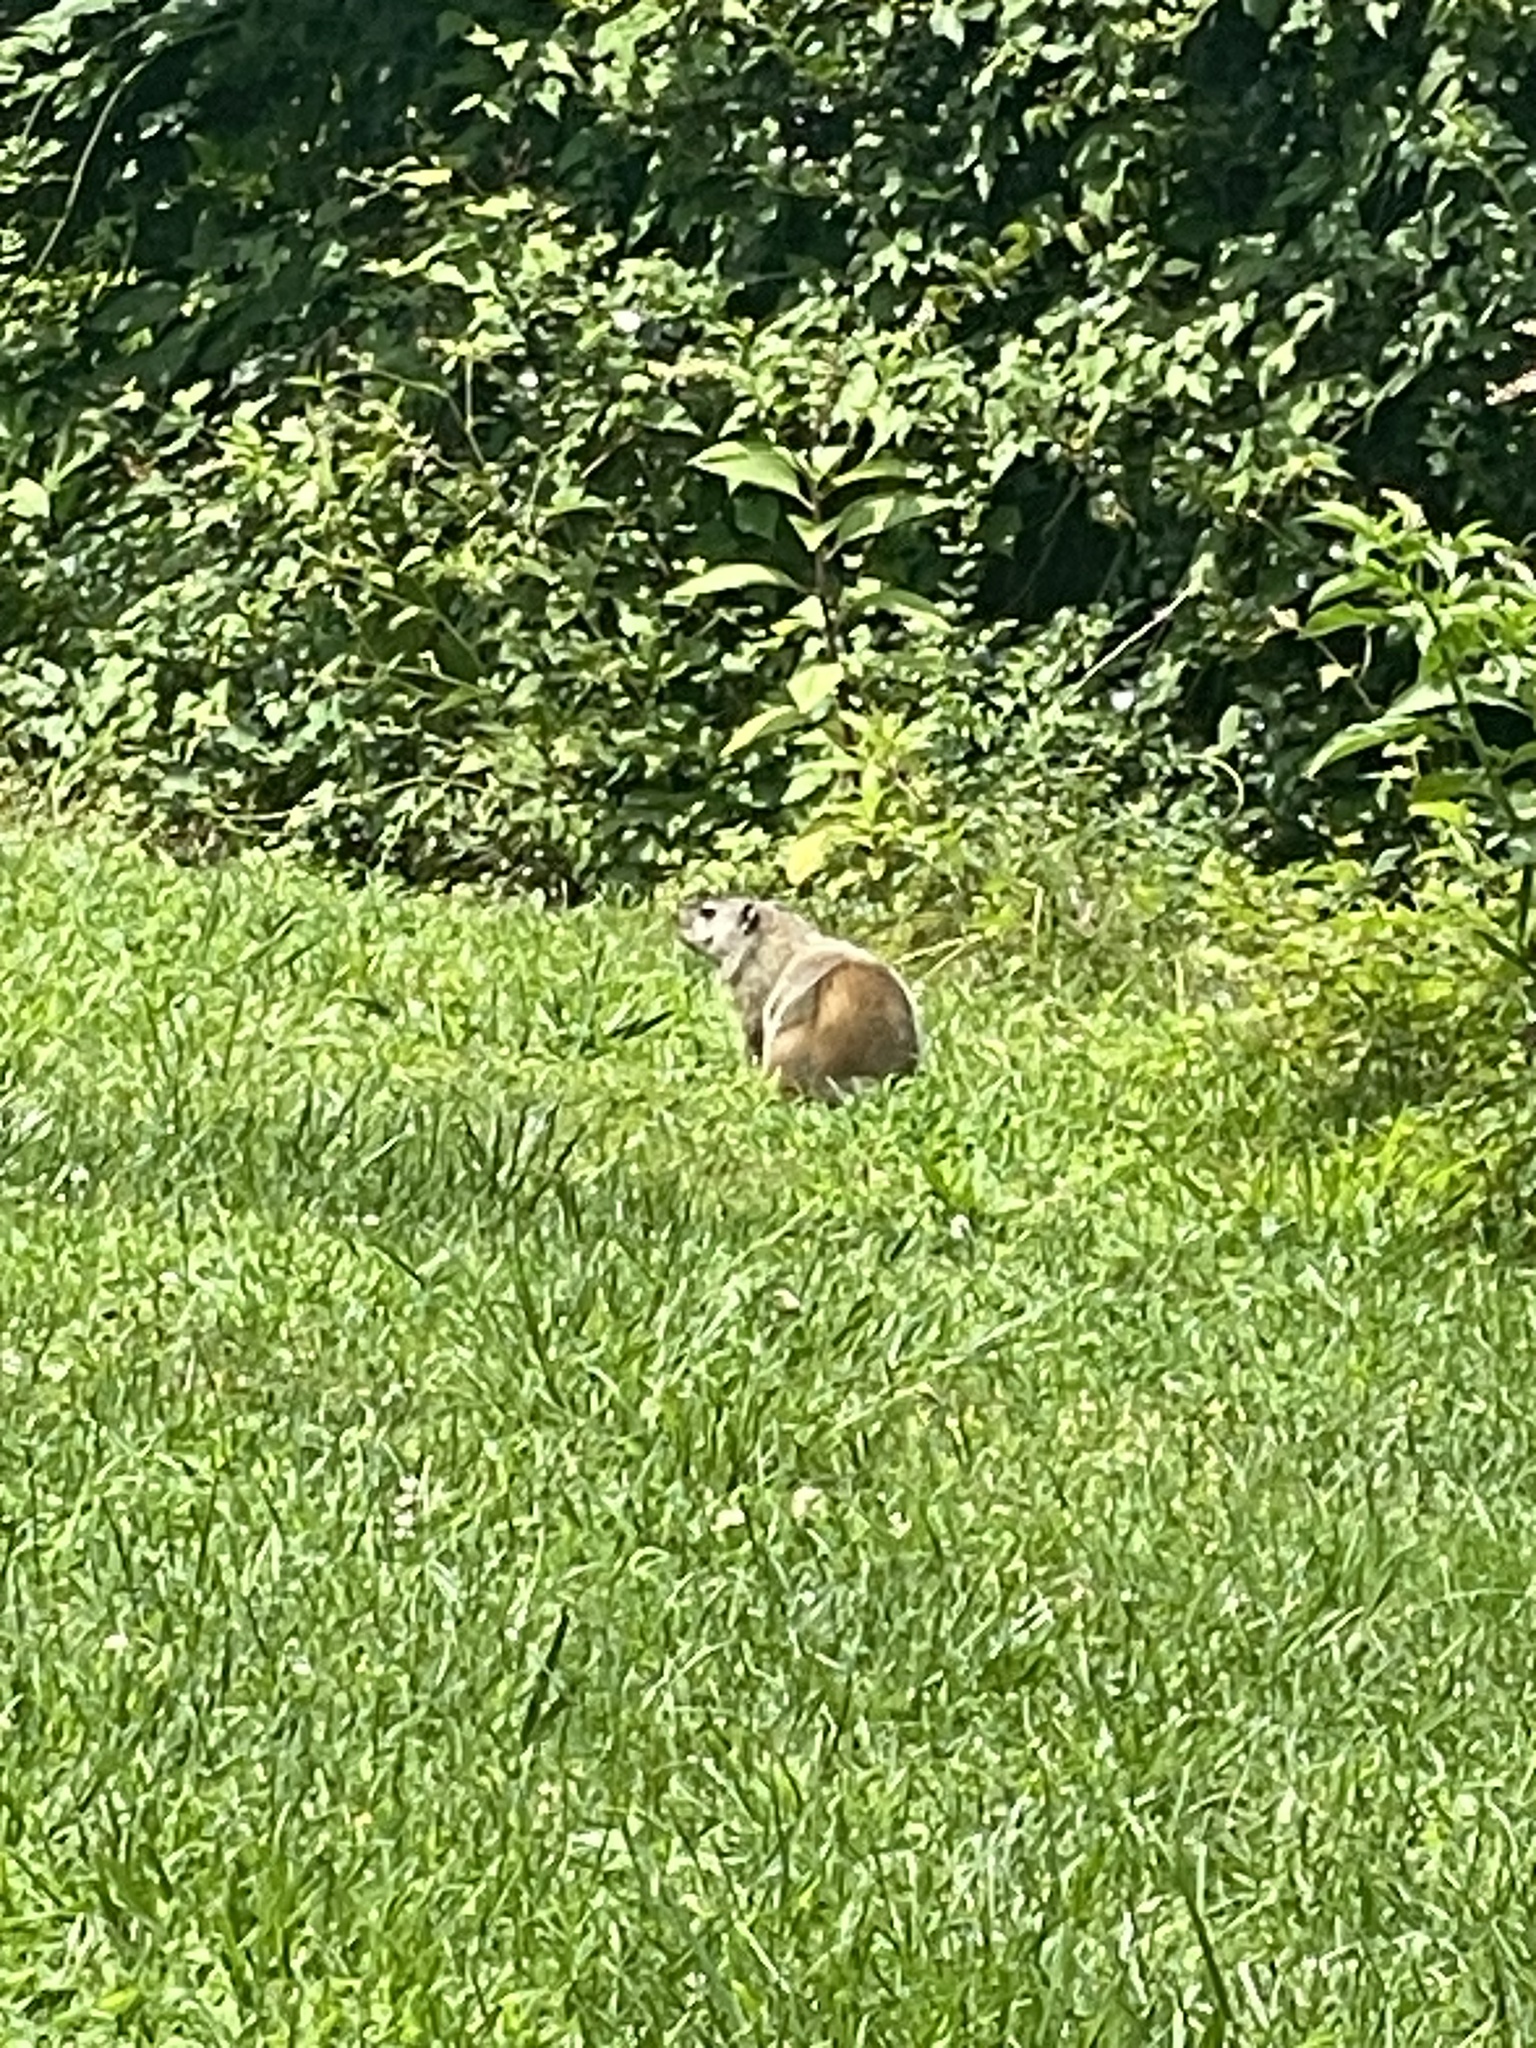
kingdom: Animalia
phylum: Chordata
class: Mammalia
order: Rodentia
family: Sciuridae
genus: Marmota
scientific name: Marmota monax
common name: Groundhog
